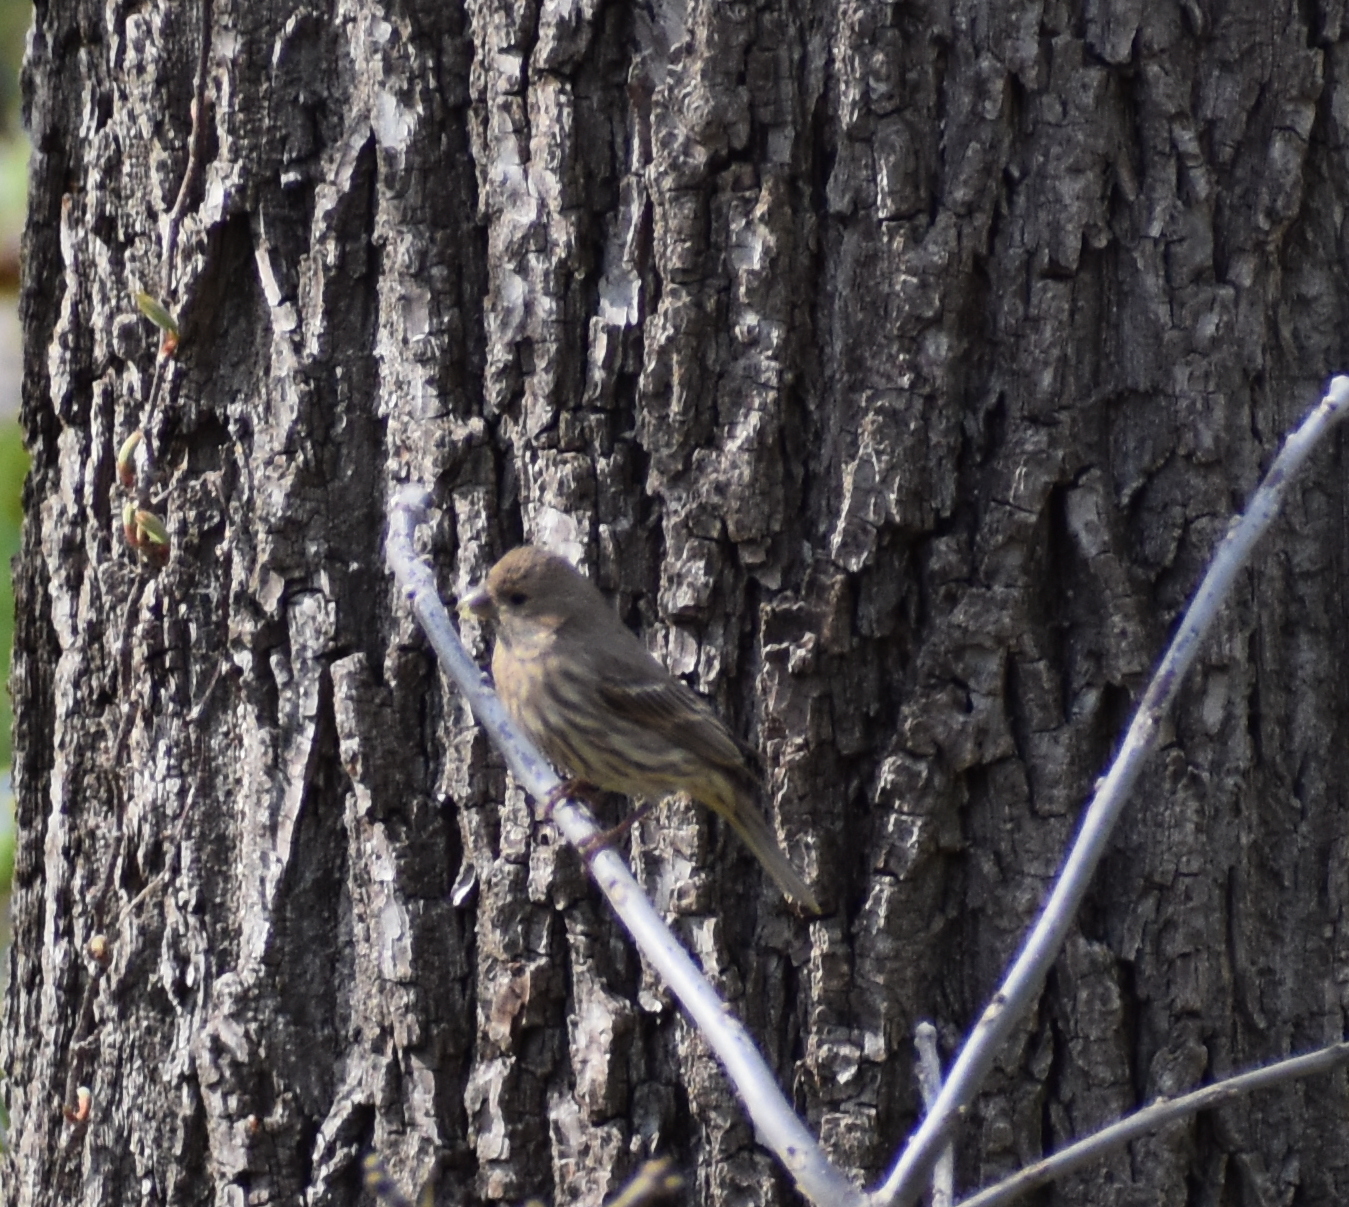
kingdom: Animalia
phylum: Chordata
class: Aves
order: Passeriformes
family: Fringillidae
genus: Haemorhous
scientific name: Haemorhous mexicanus
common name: House finch
